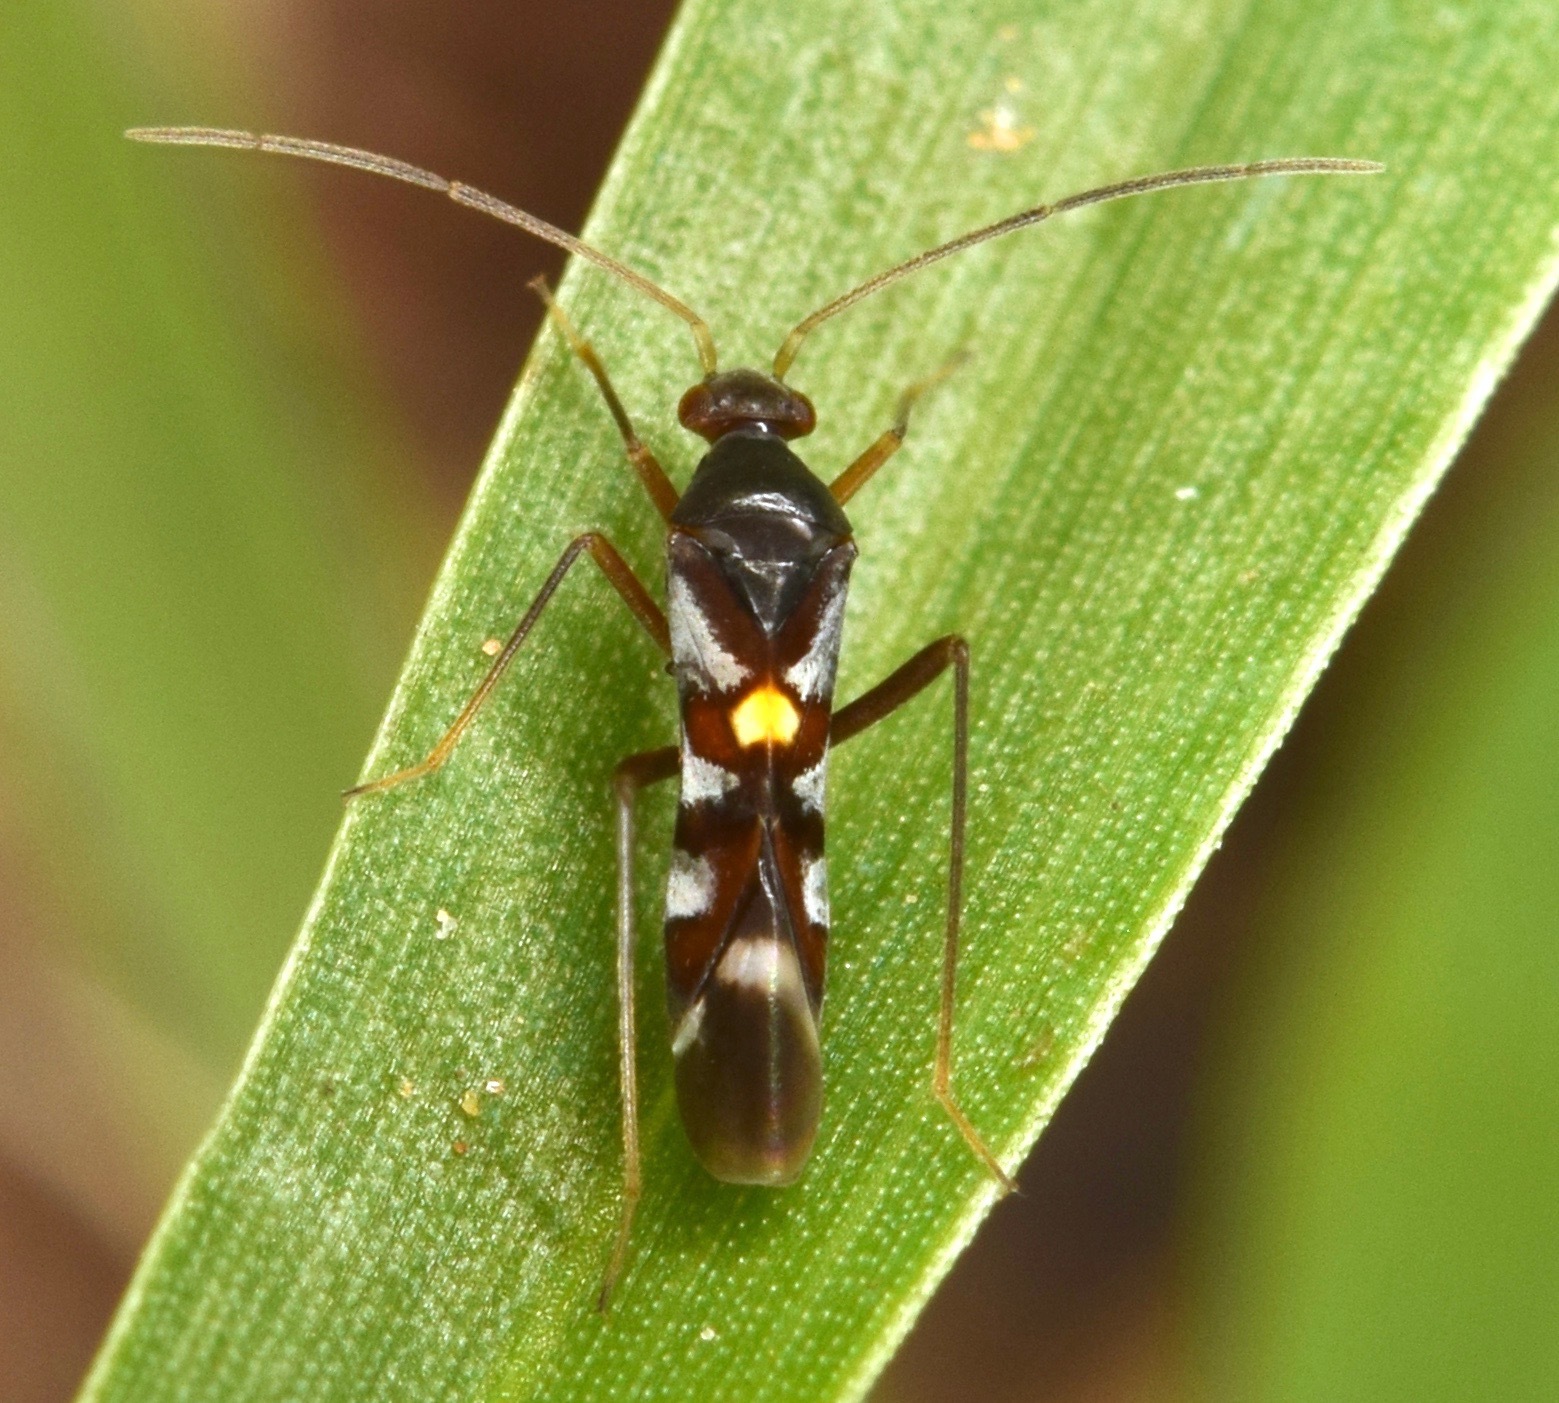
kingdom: Animalia
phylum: Arthropoda
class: Insecta
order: Hemiptera
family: Miridae
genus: Sericophanes
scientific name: Sericophanes heidemanni
